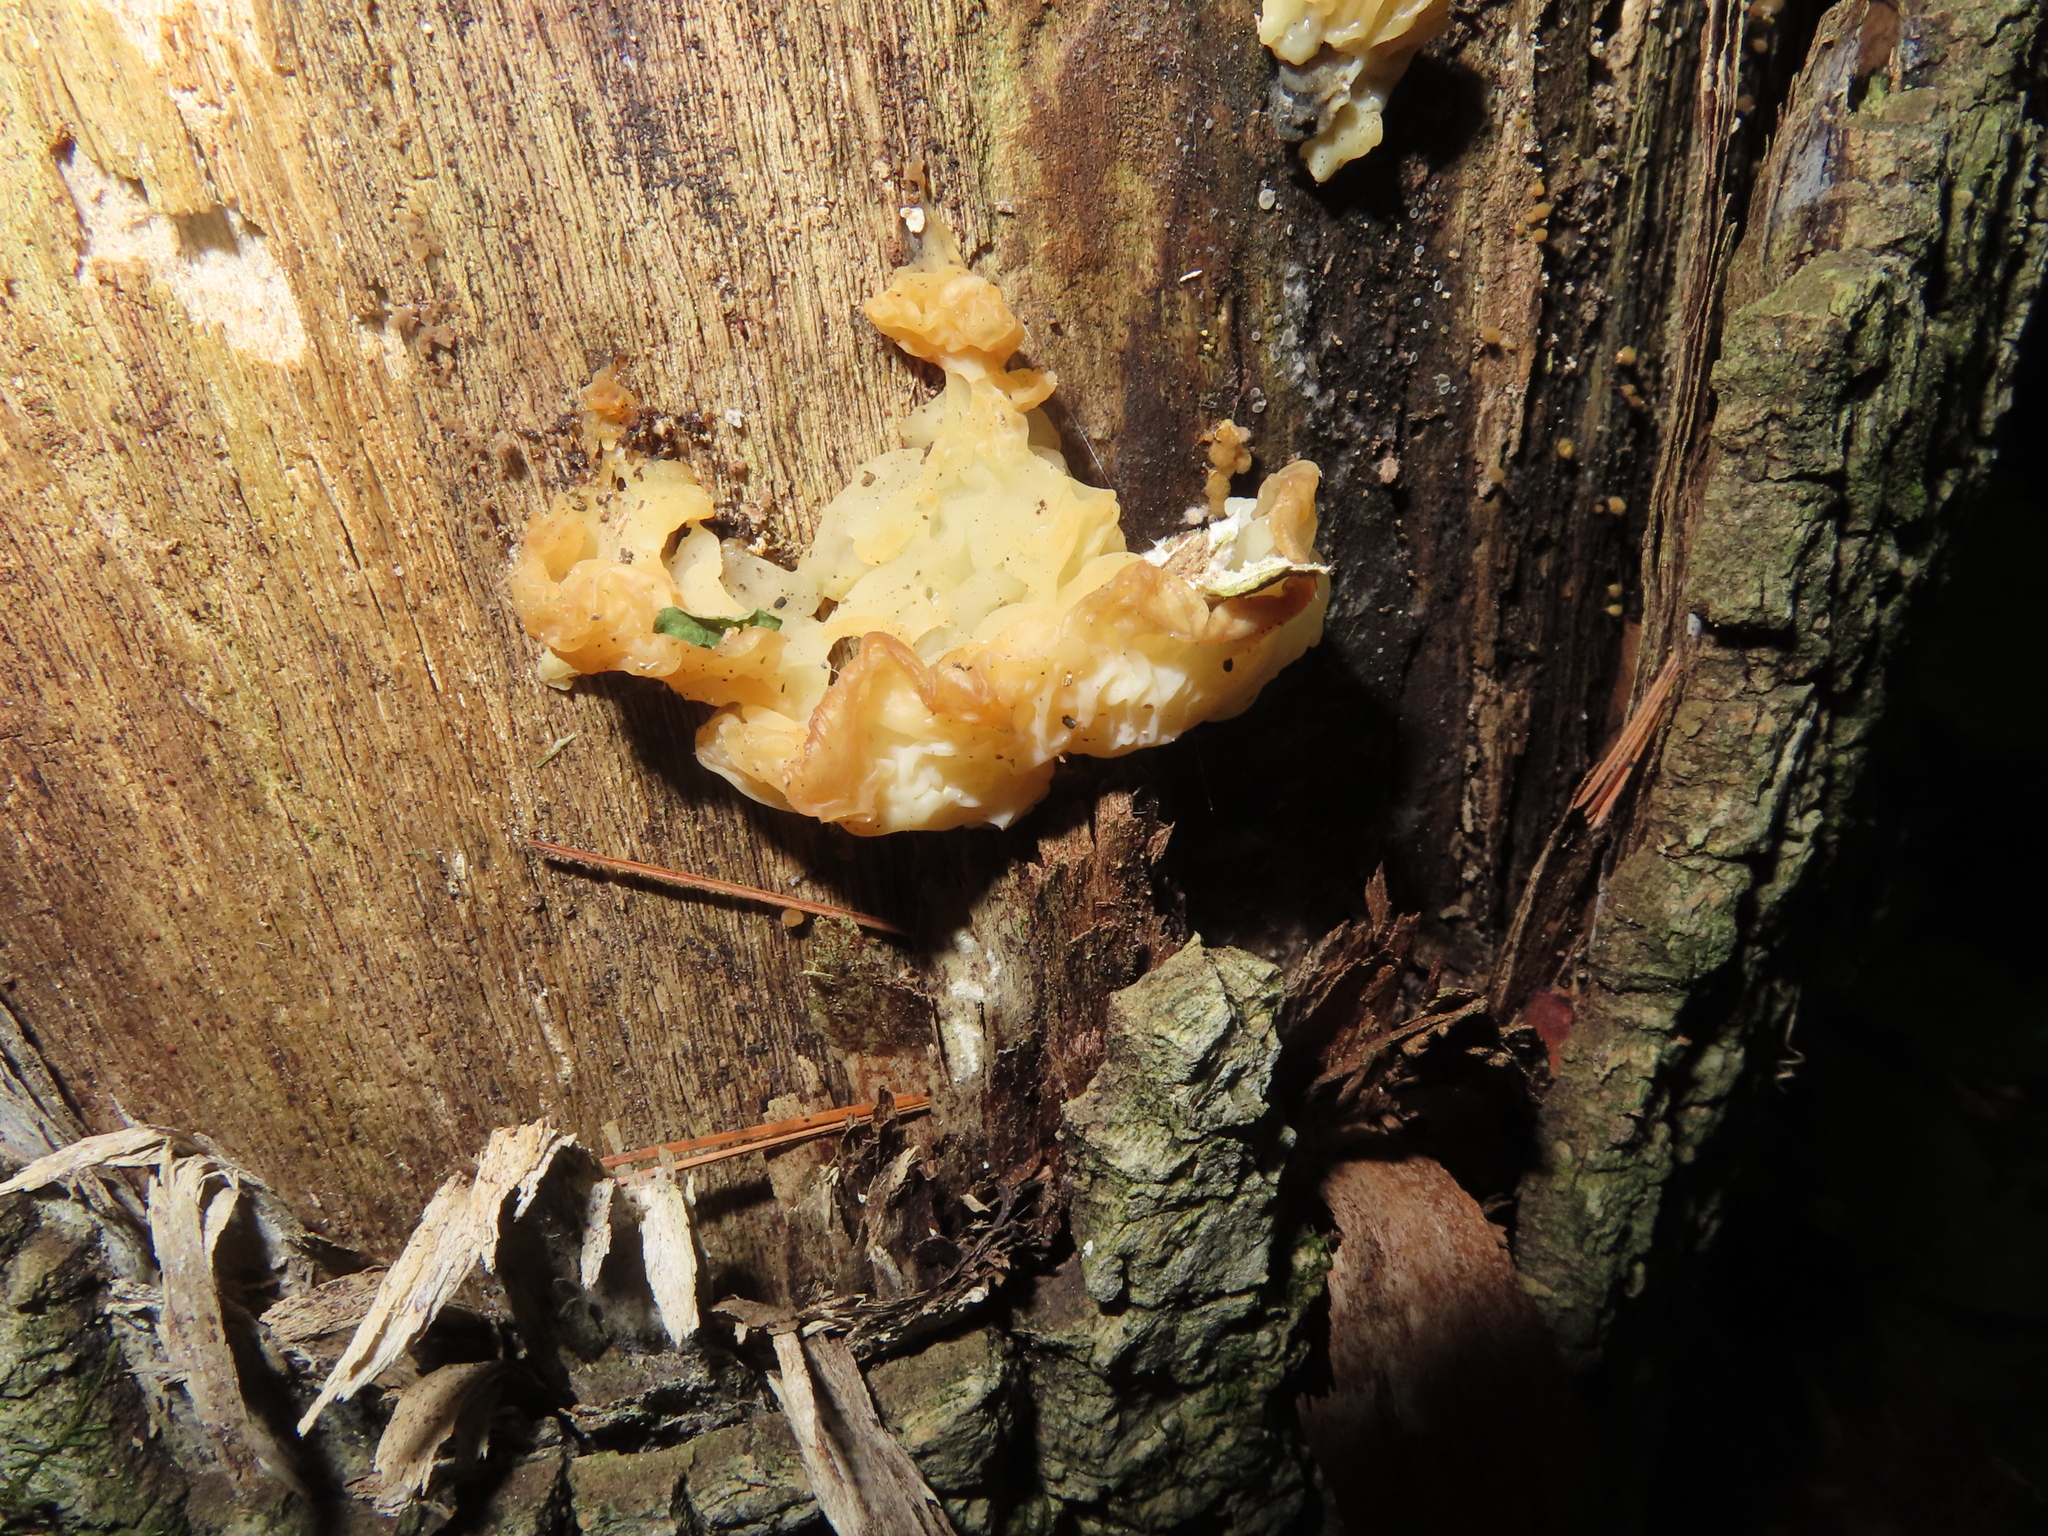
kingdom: Fungi
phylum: Basidiomycota
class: Agaricomycetes
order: Auriculariales
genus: Ductifera
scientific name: Ductifera pululahuana
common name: White jelly fungus
